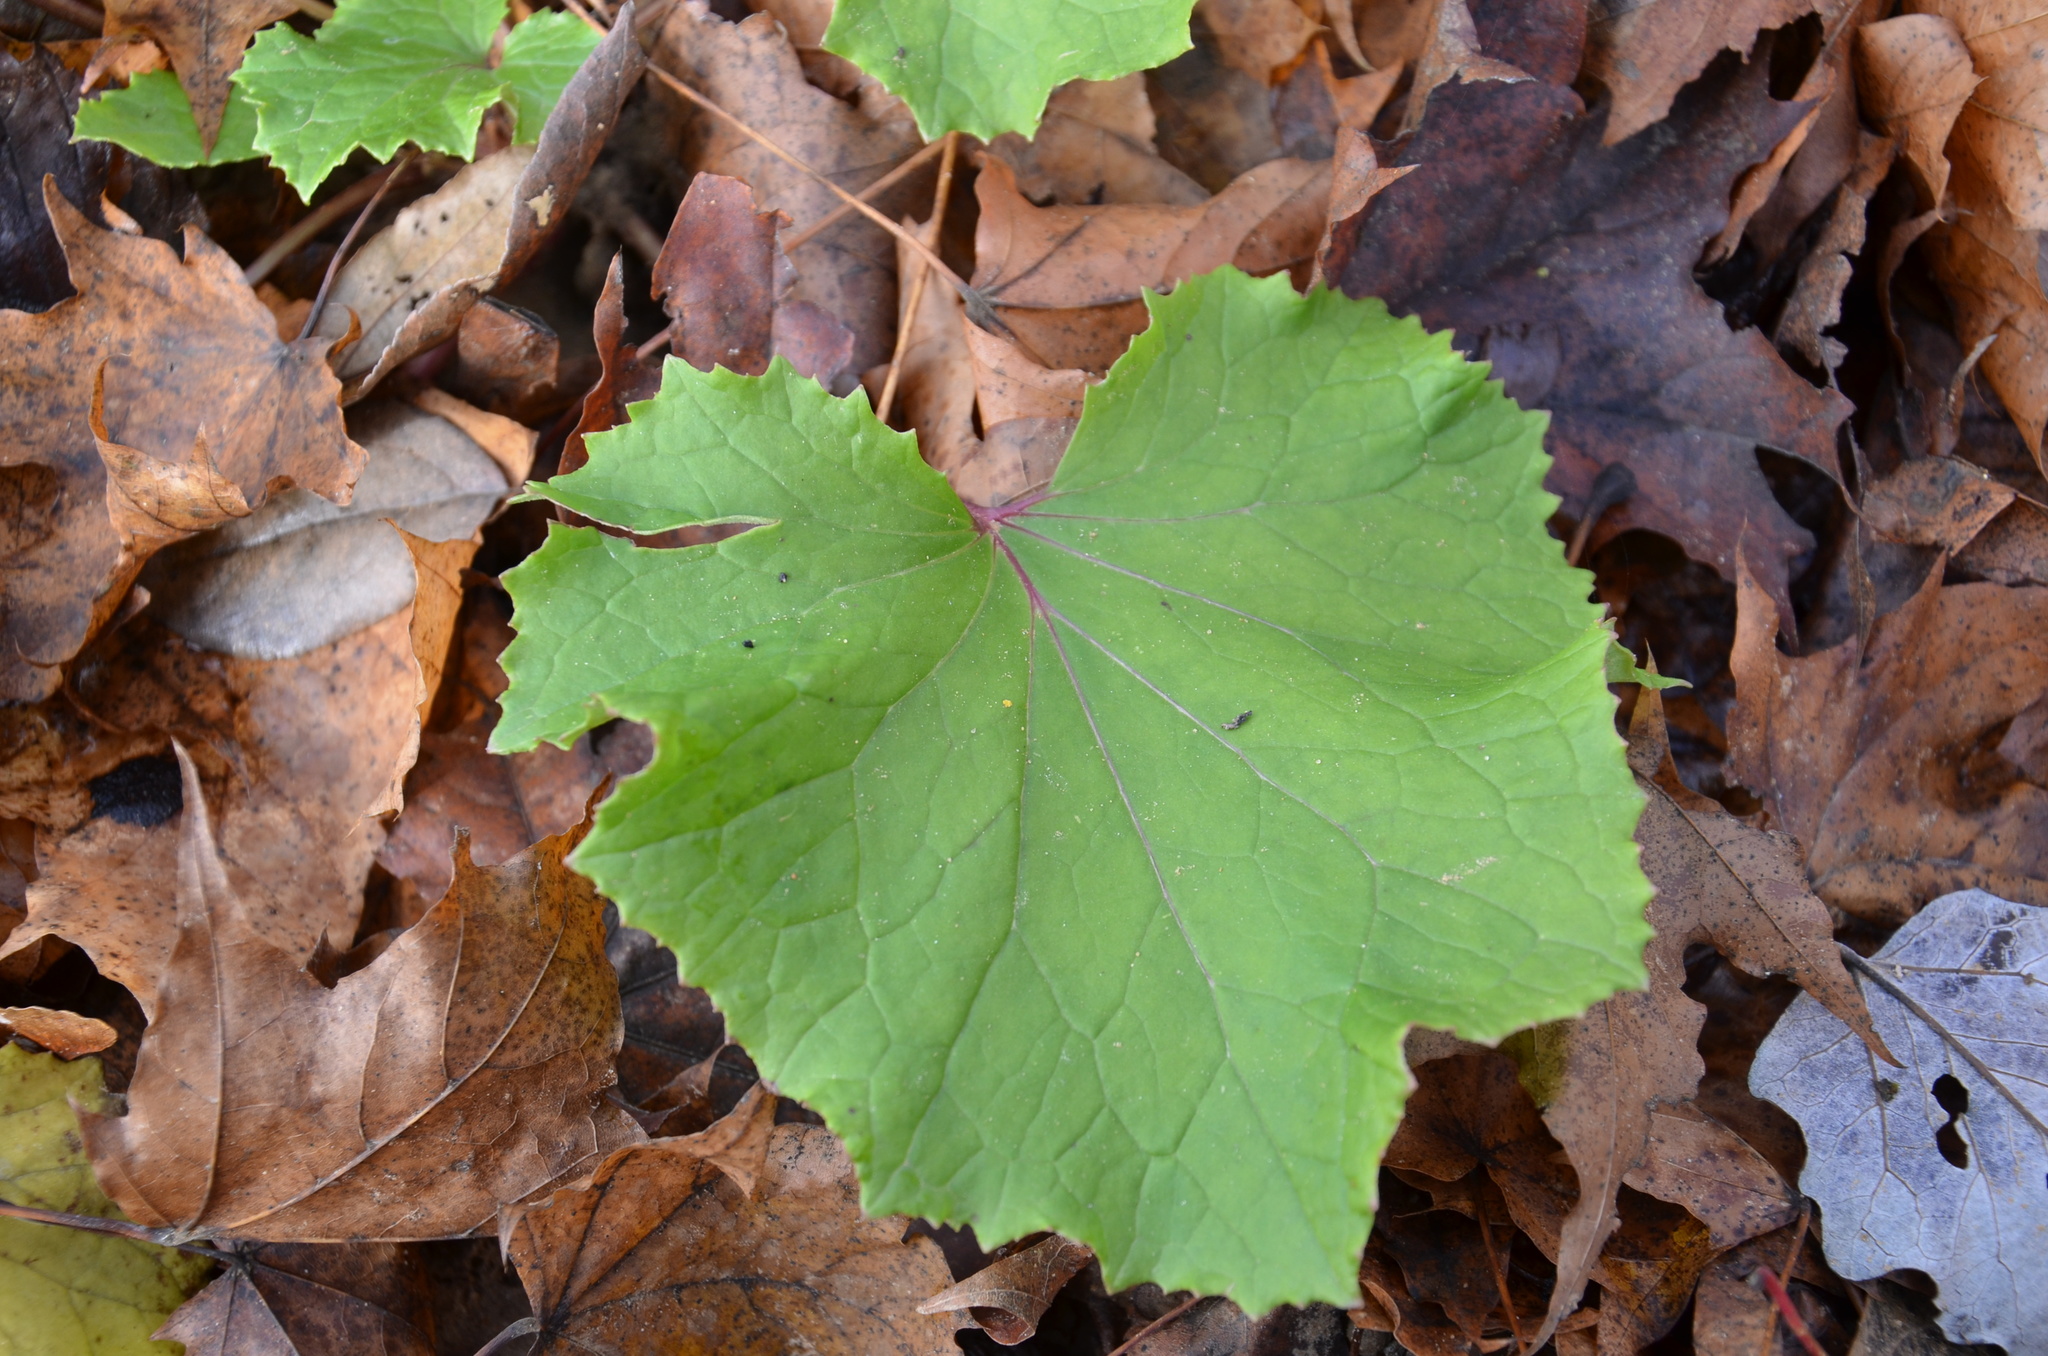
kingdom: Plantae
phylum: Tracheophyta
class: Magnoliopsida
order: Asterales
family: Asteraceae
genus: Tussilago
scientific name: Tussilago farfara
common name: Coltsfoot
